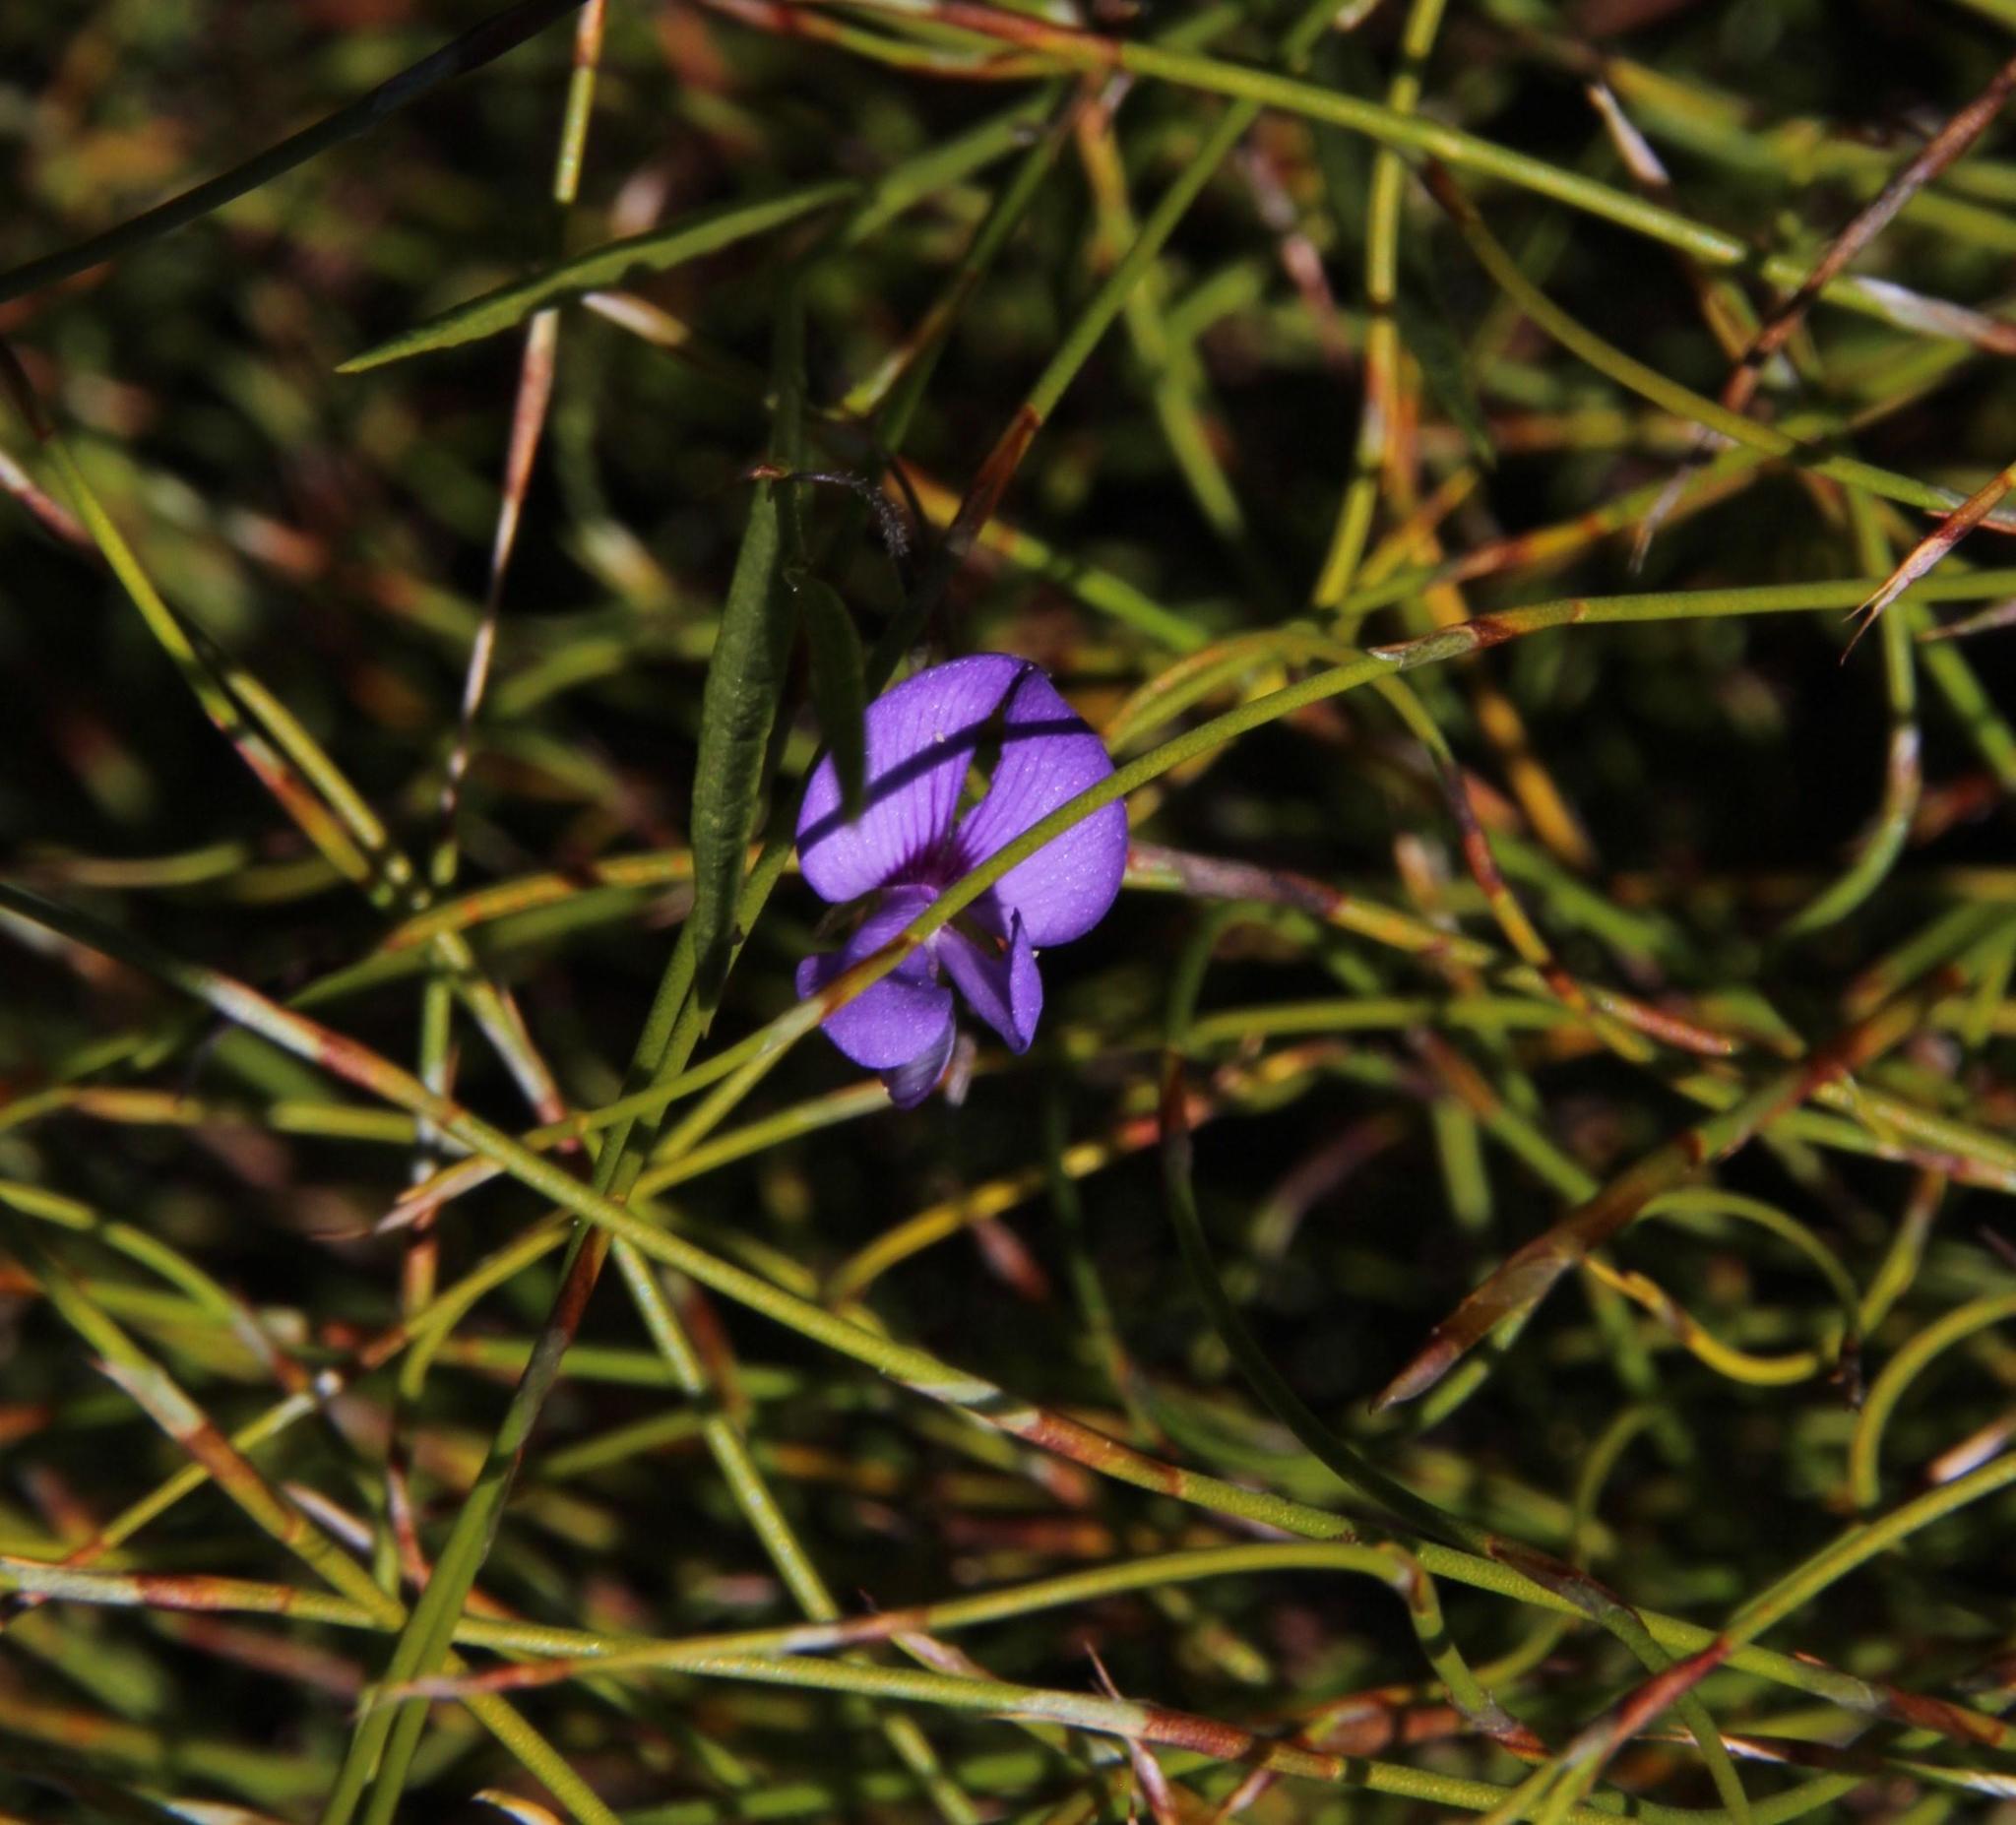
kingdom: Plantae
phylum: Tracheophyta
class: Magnoliopsida
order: Fabales
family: Fabaceae
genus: Psoralea
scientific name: Psoralea laxa
